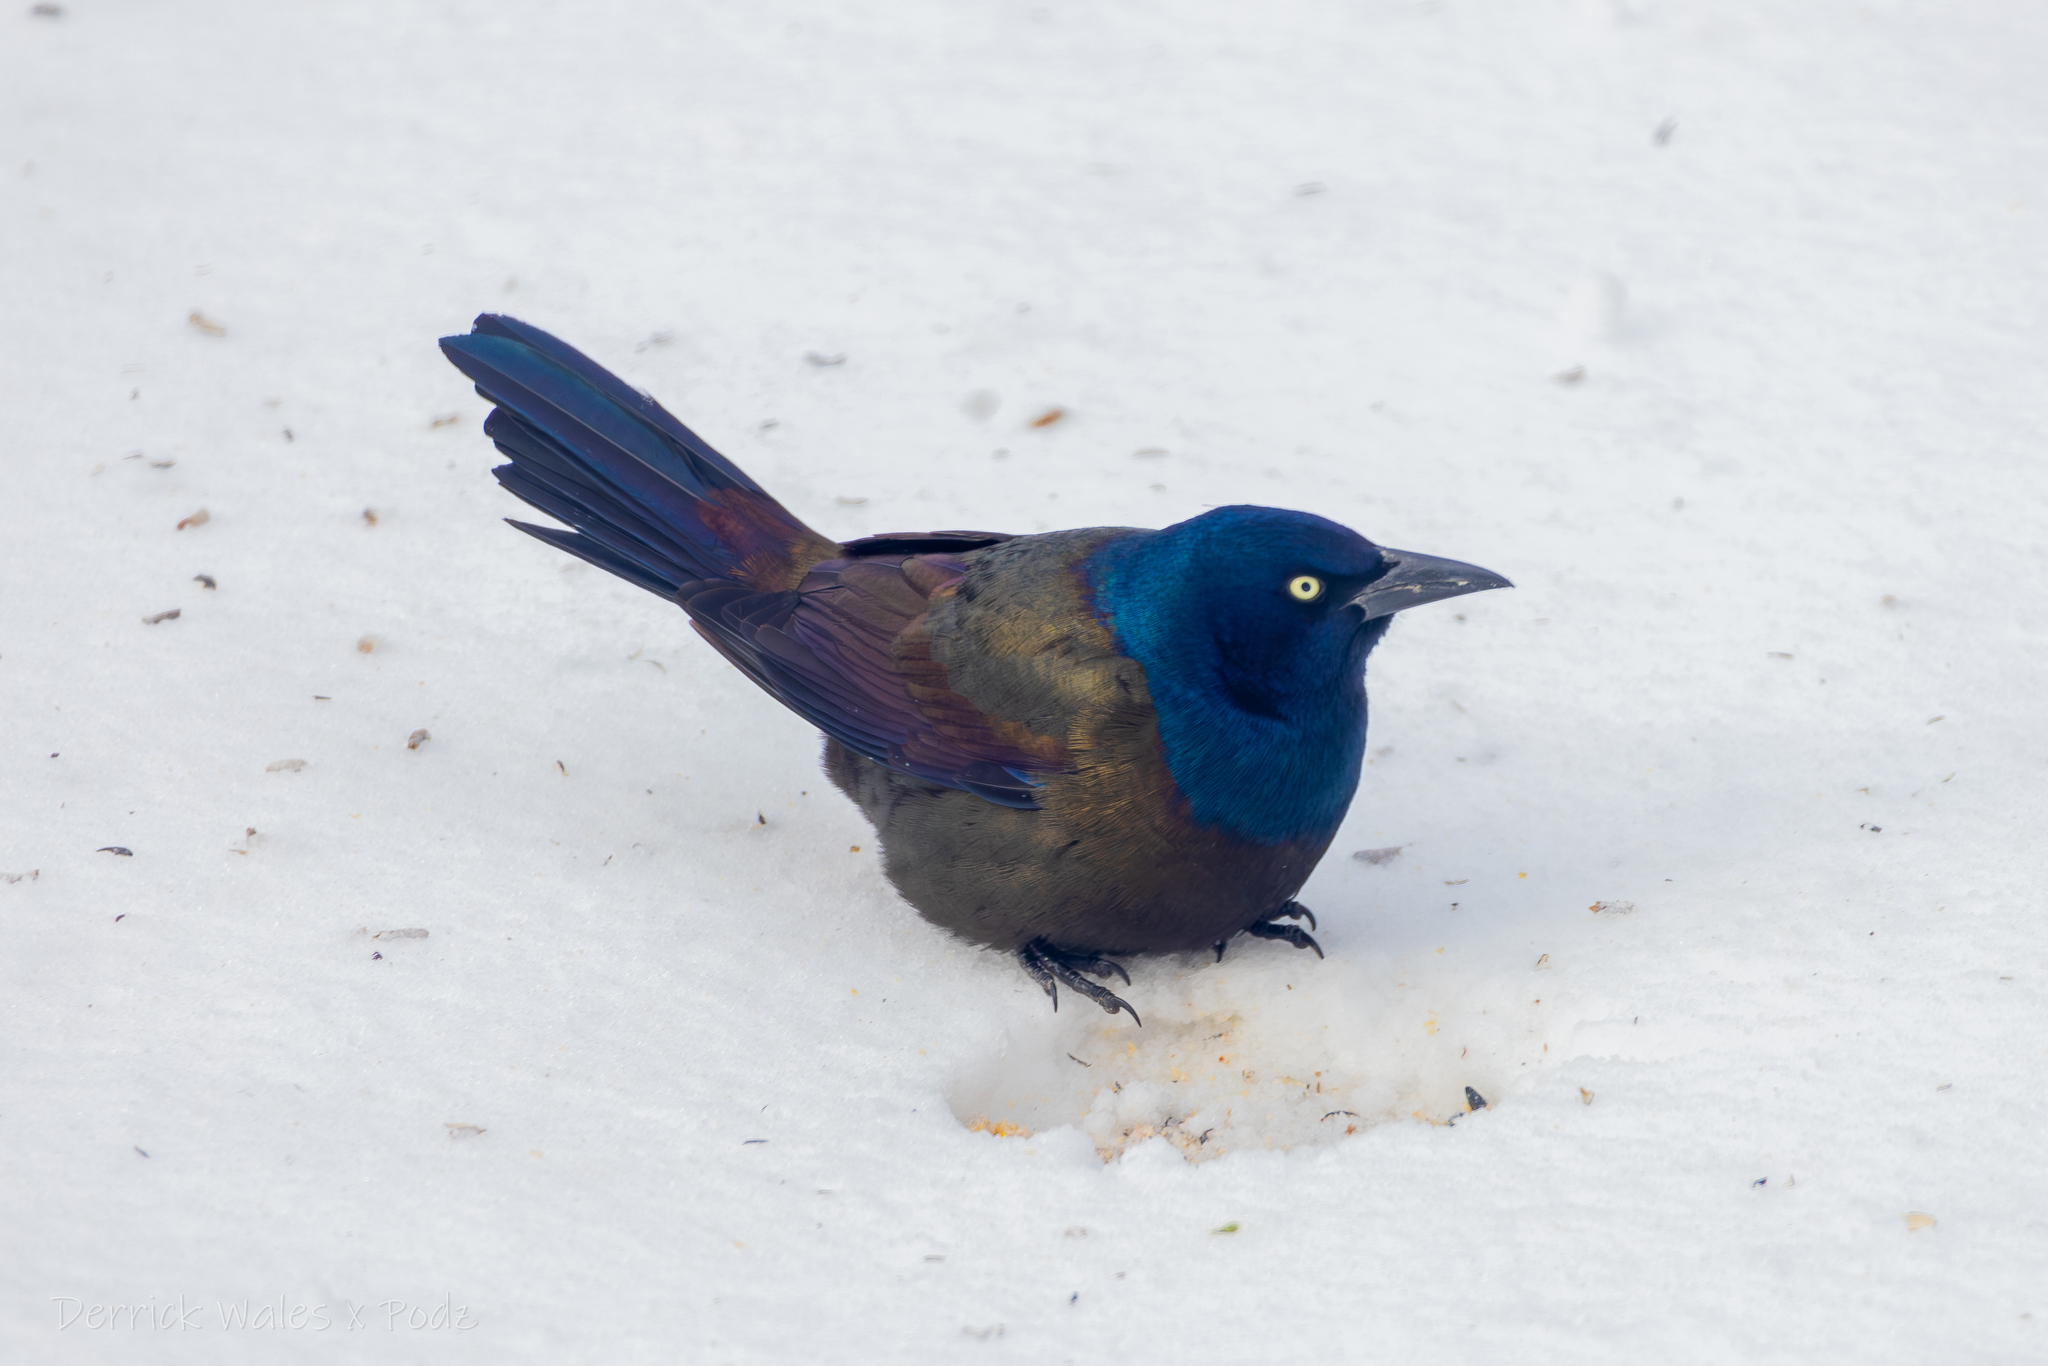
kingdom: Animalia
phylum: Chordata
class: Aves
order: Passeriformes
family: Icteridae
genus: Quiscalus
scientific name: Quiscalus quiscula
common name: Common grackle
